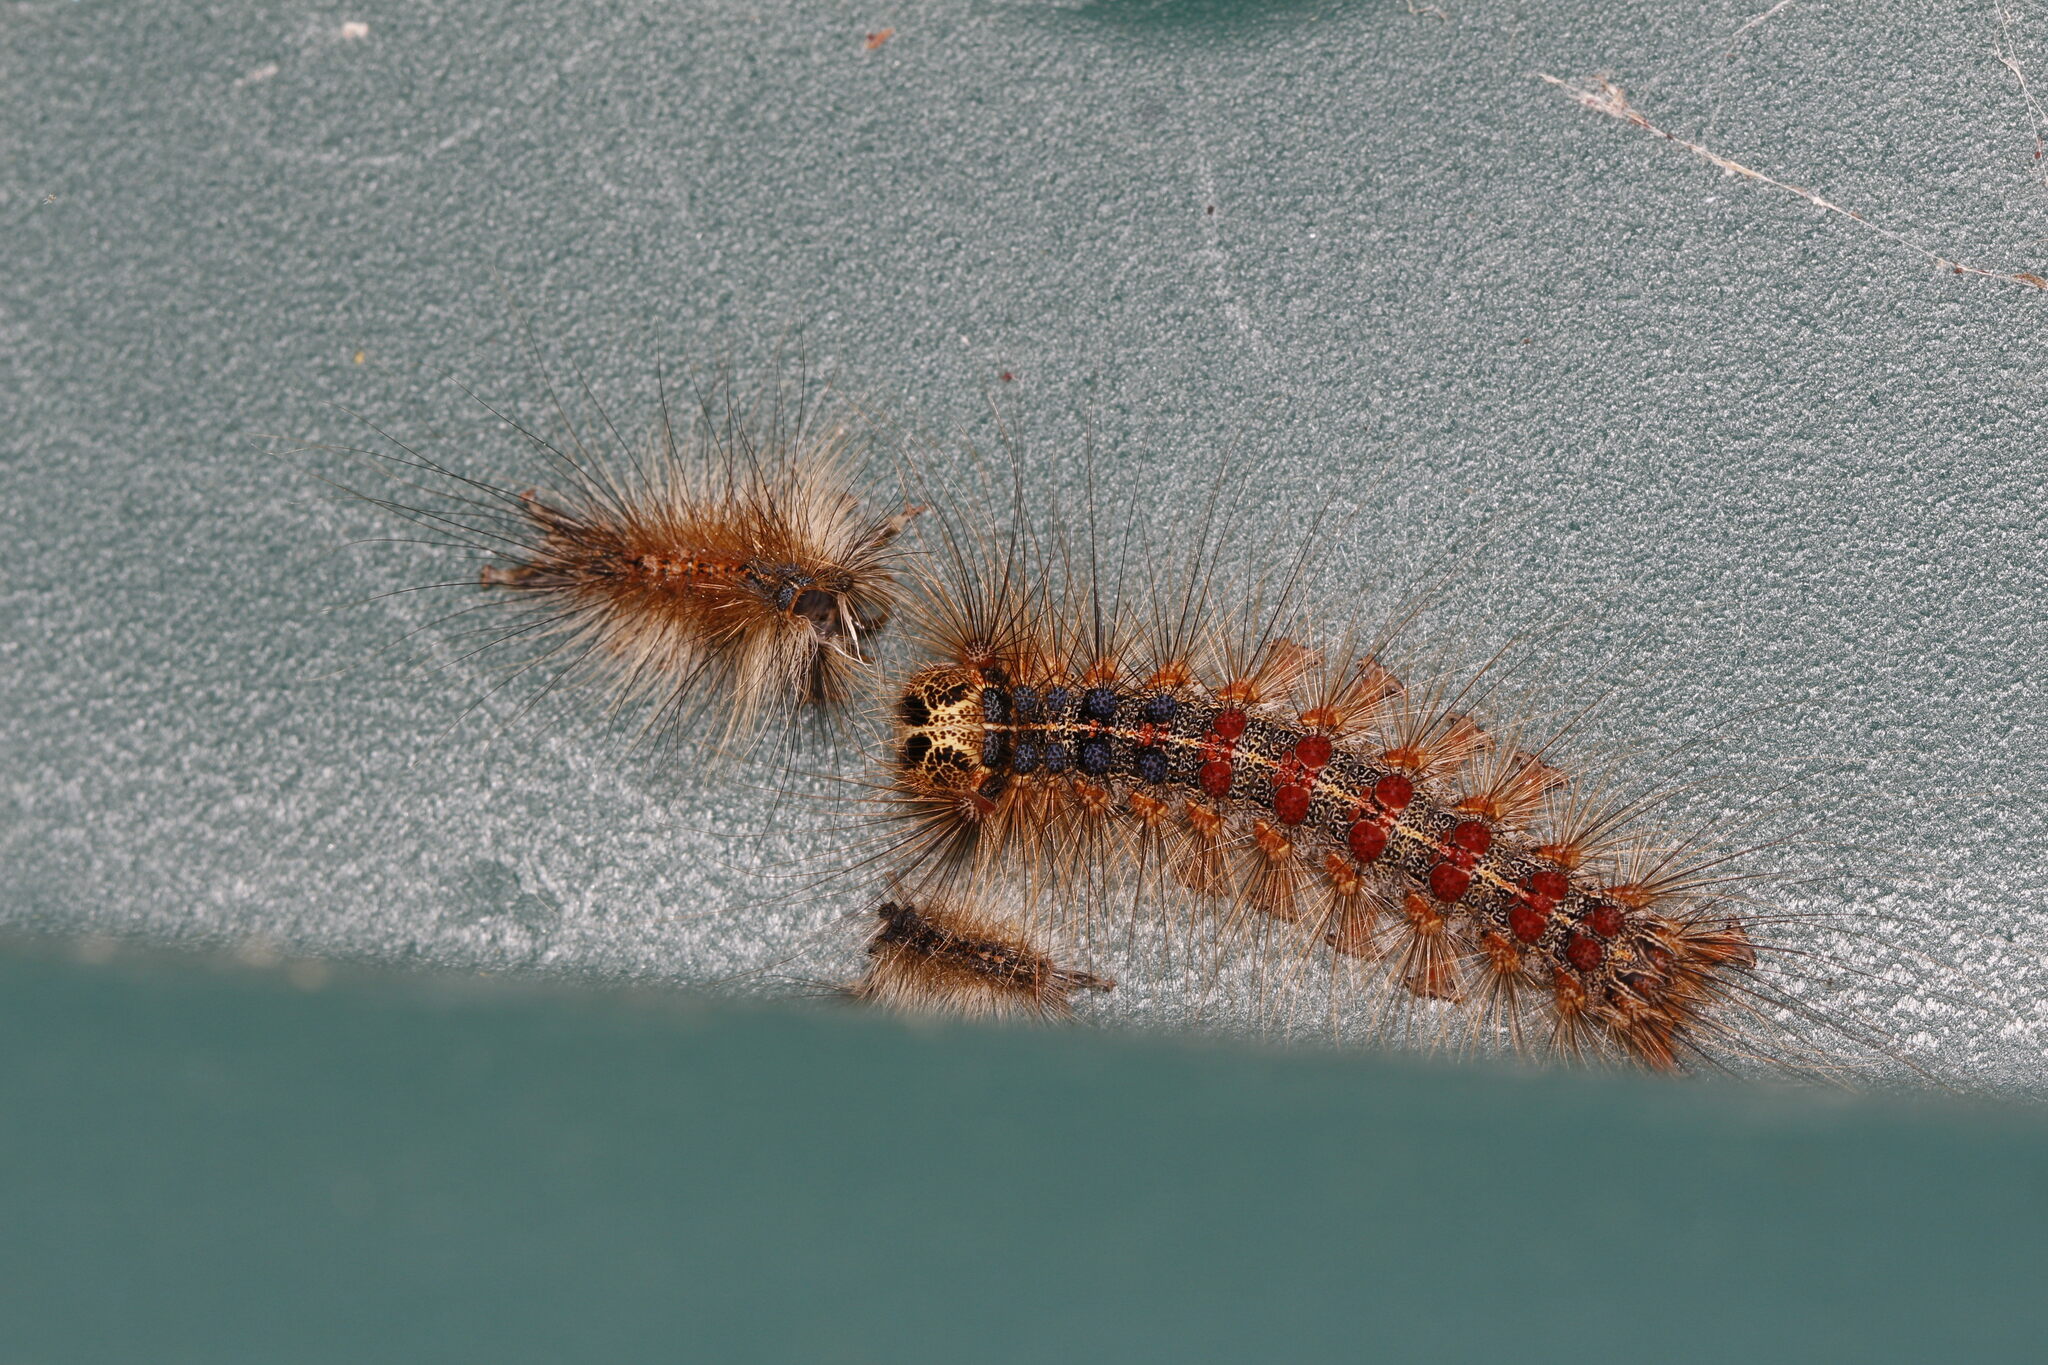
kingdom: Animalia
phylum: Arthropoda
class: Insecta
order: Lepidoptera
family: Erebidae
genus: Lymantria
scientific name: Lymantria dispar
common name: Gypsy moth
